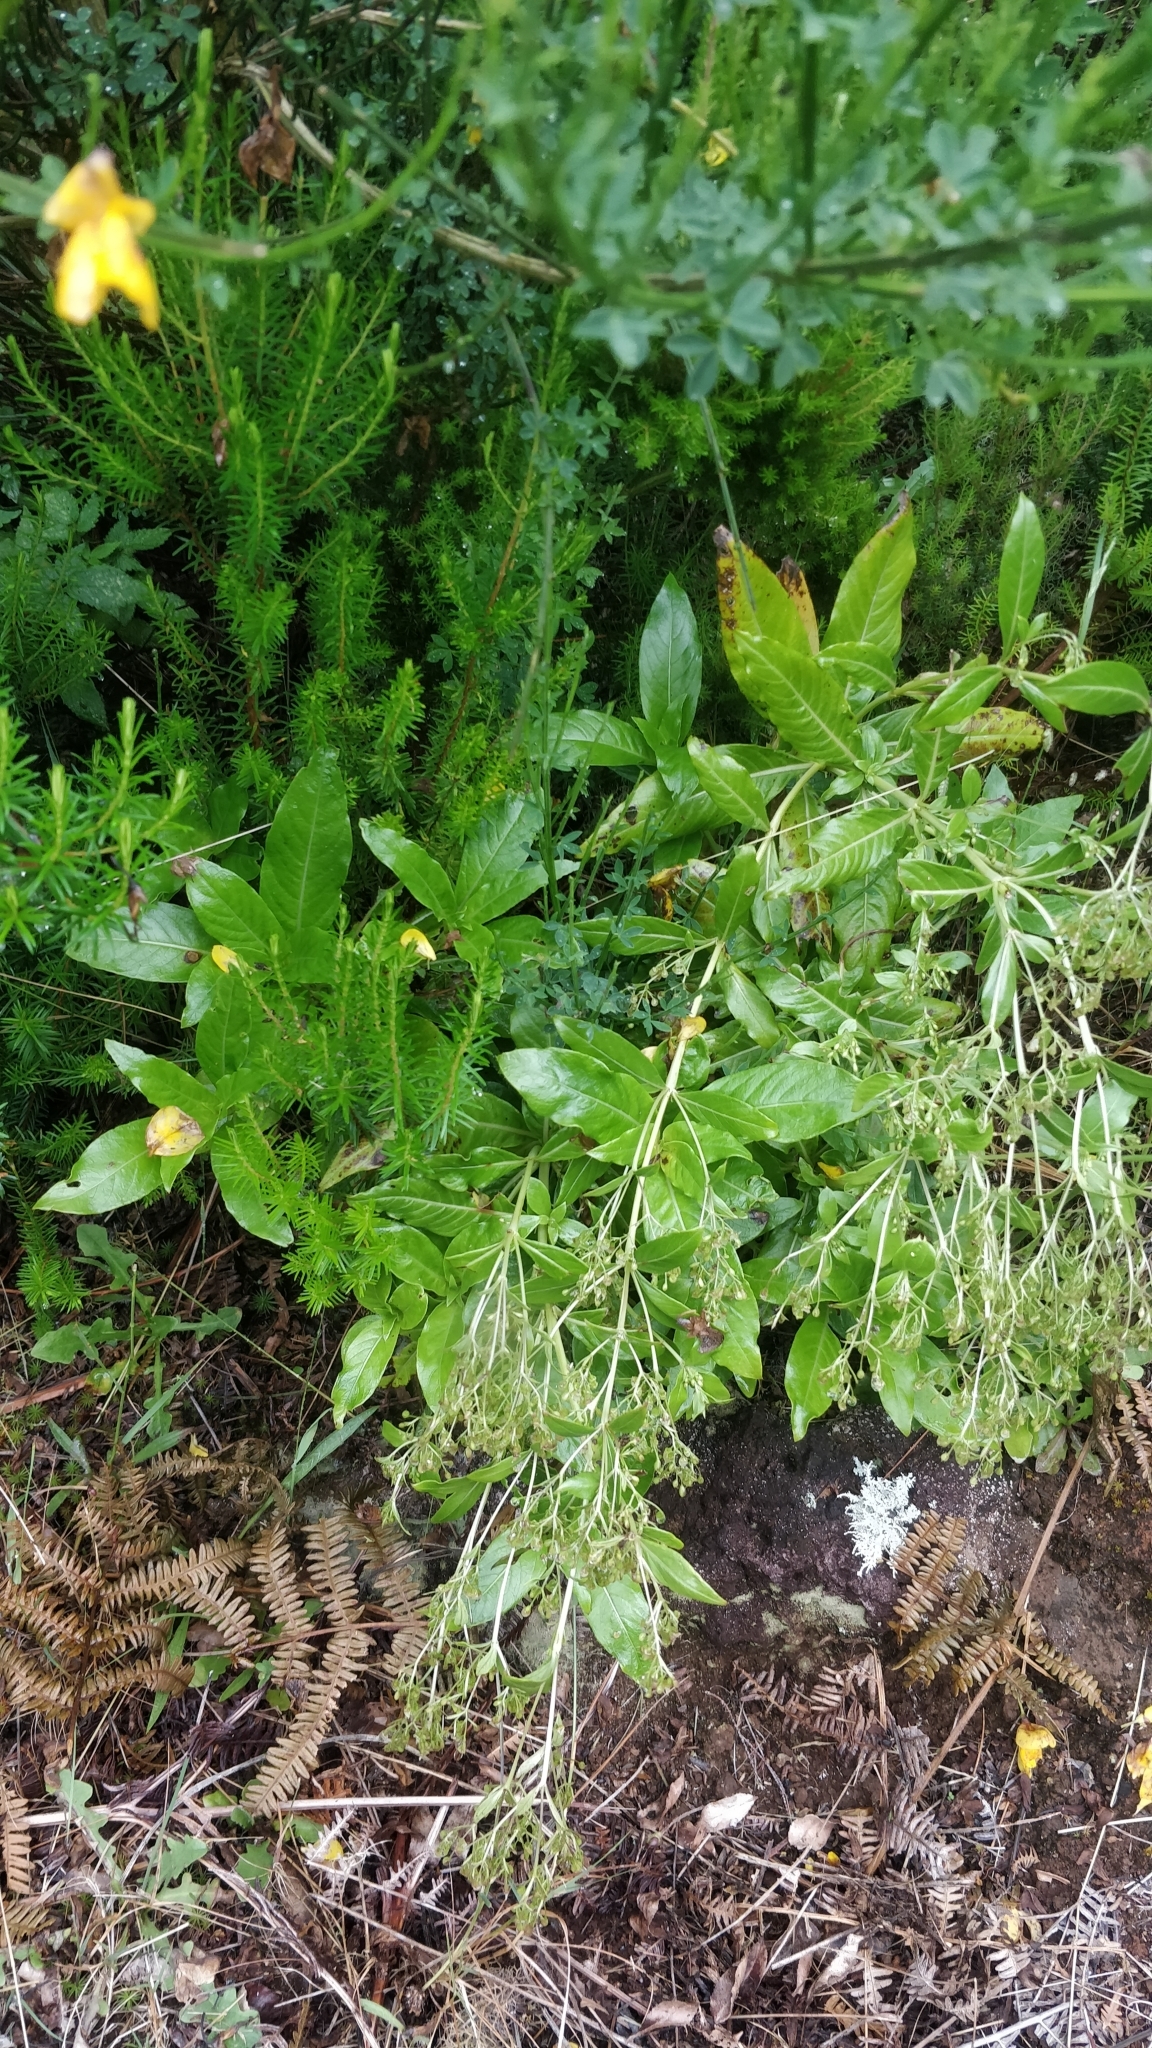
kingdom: Plantae
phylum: Tracheophyta
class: Magnoliopsida
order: Gentianales
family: Rubiaceae
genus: Phyllis
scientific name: Phyllis nobla
